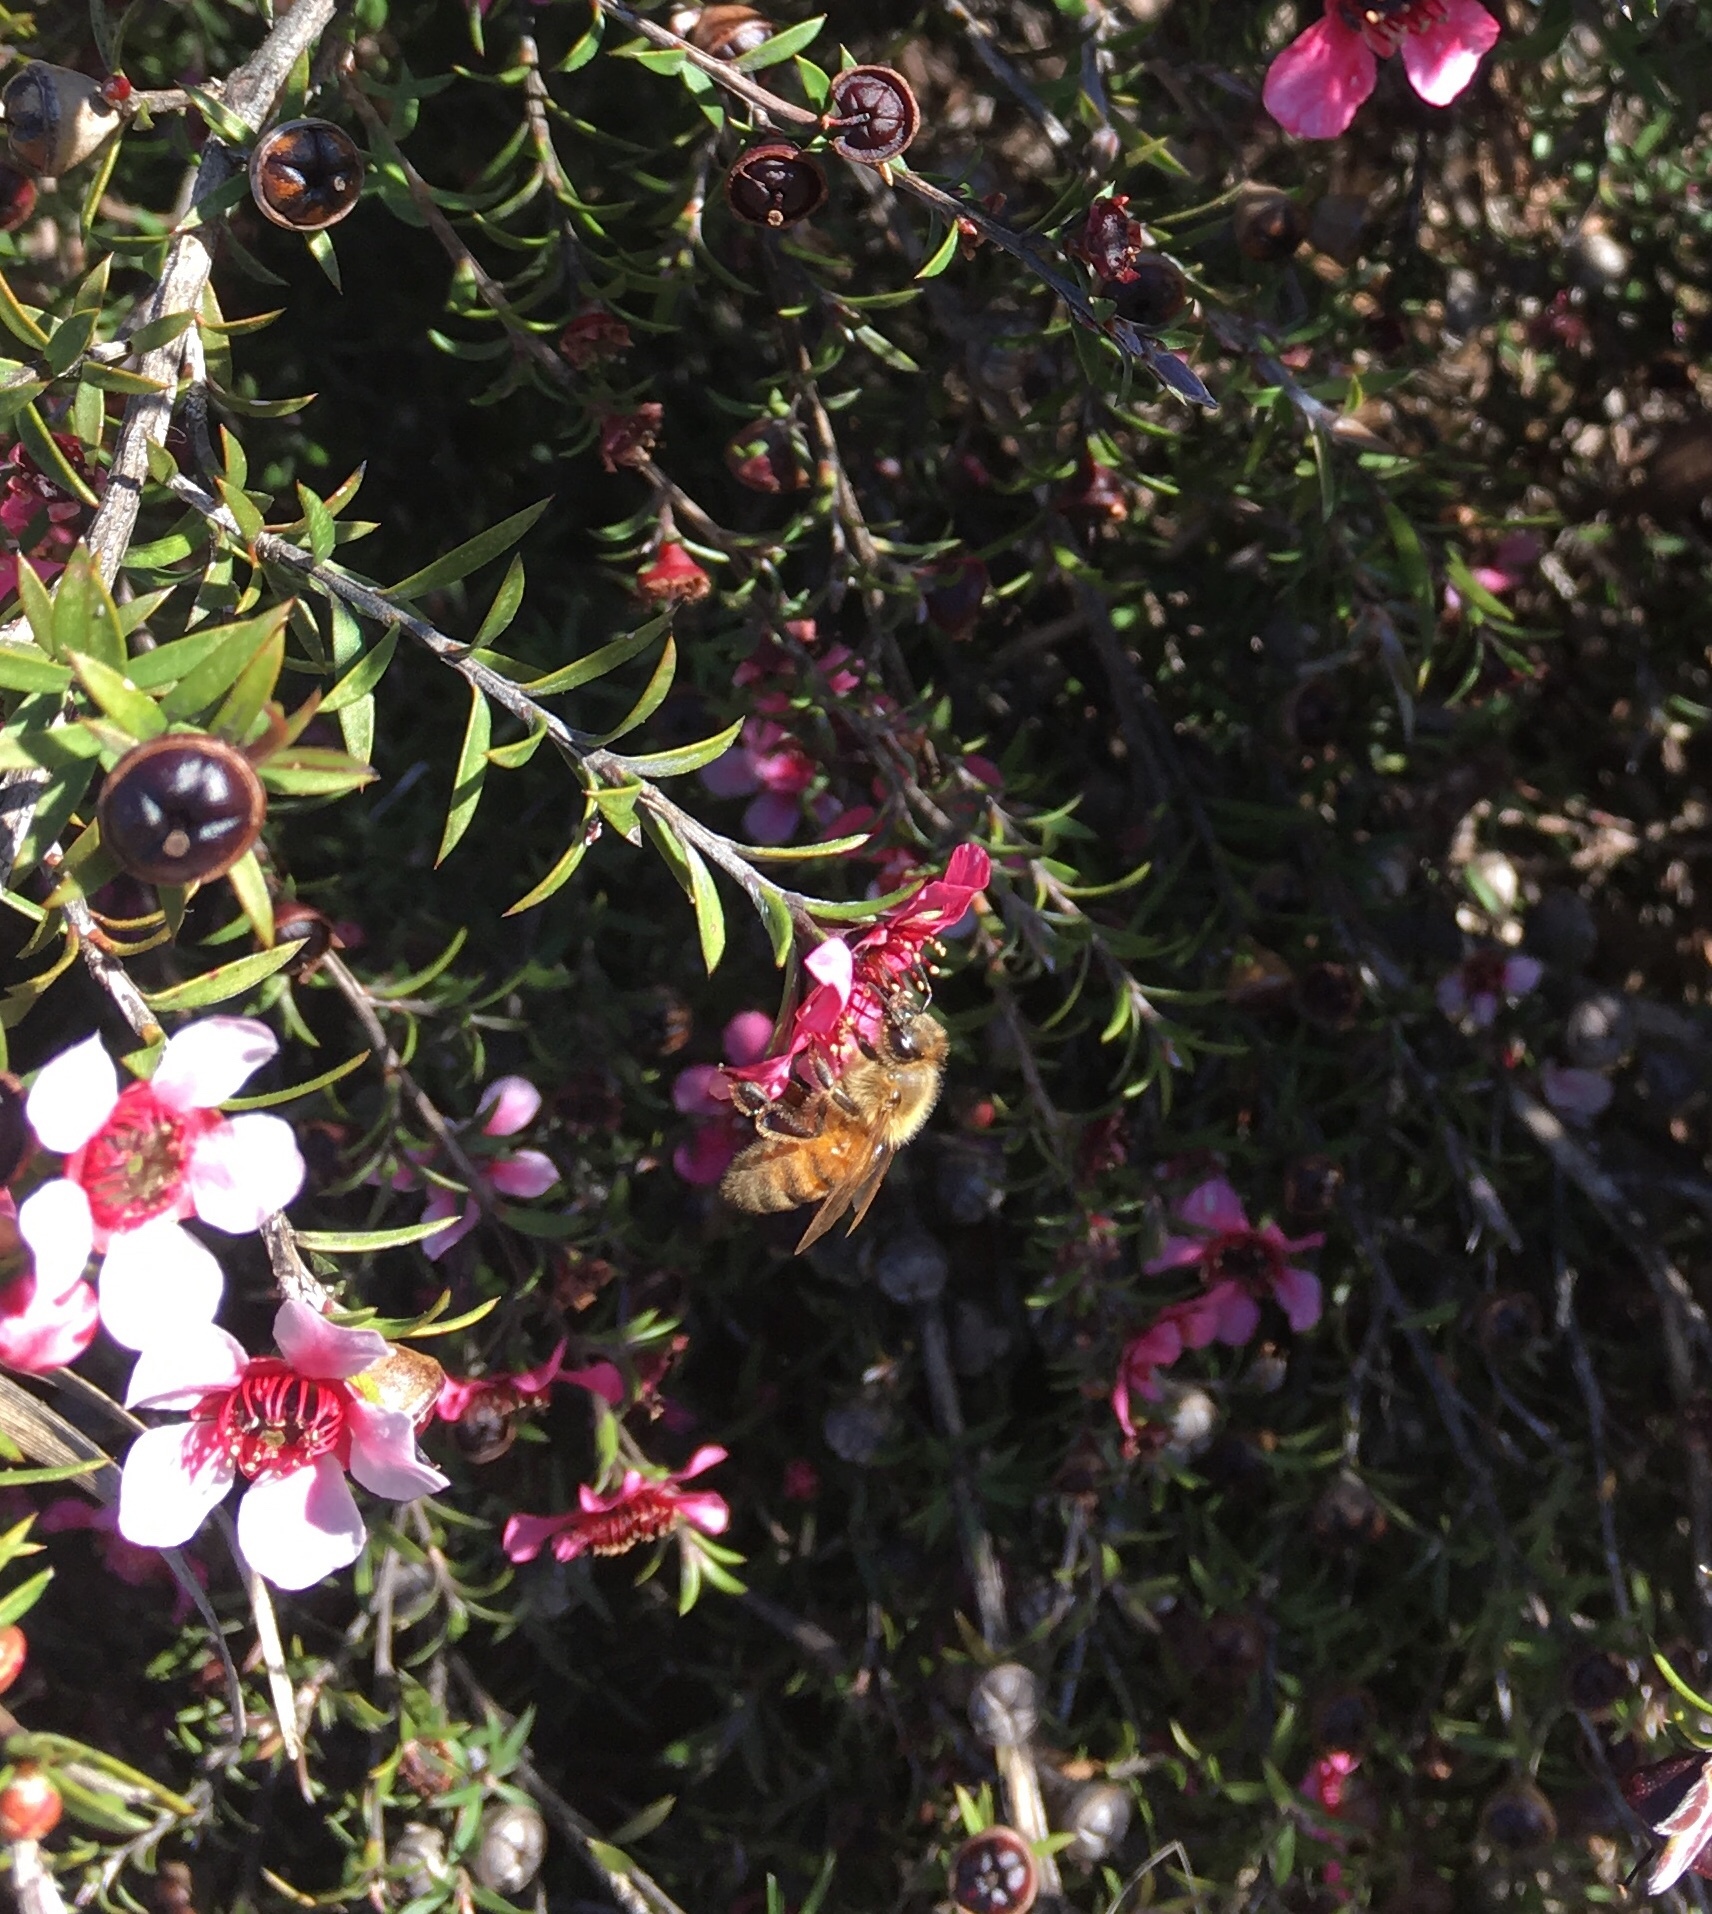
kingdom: Animalia
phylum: Arthropoda
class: Insecta
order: Hymenoptera
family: Apidae
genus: Apis
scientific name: Apis mellifera
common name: Honey bee
